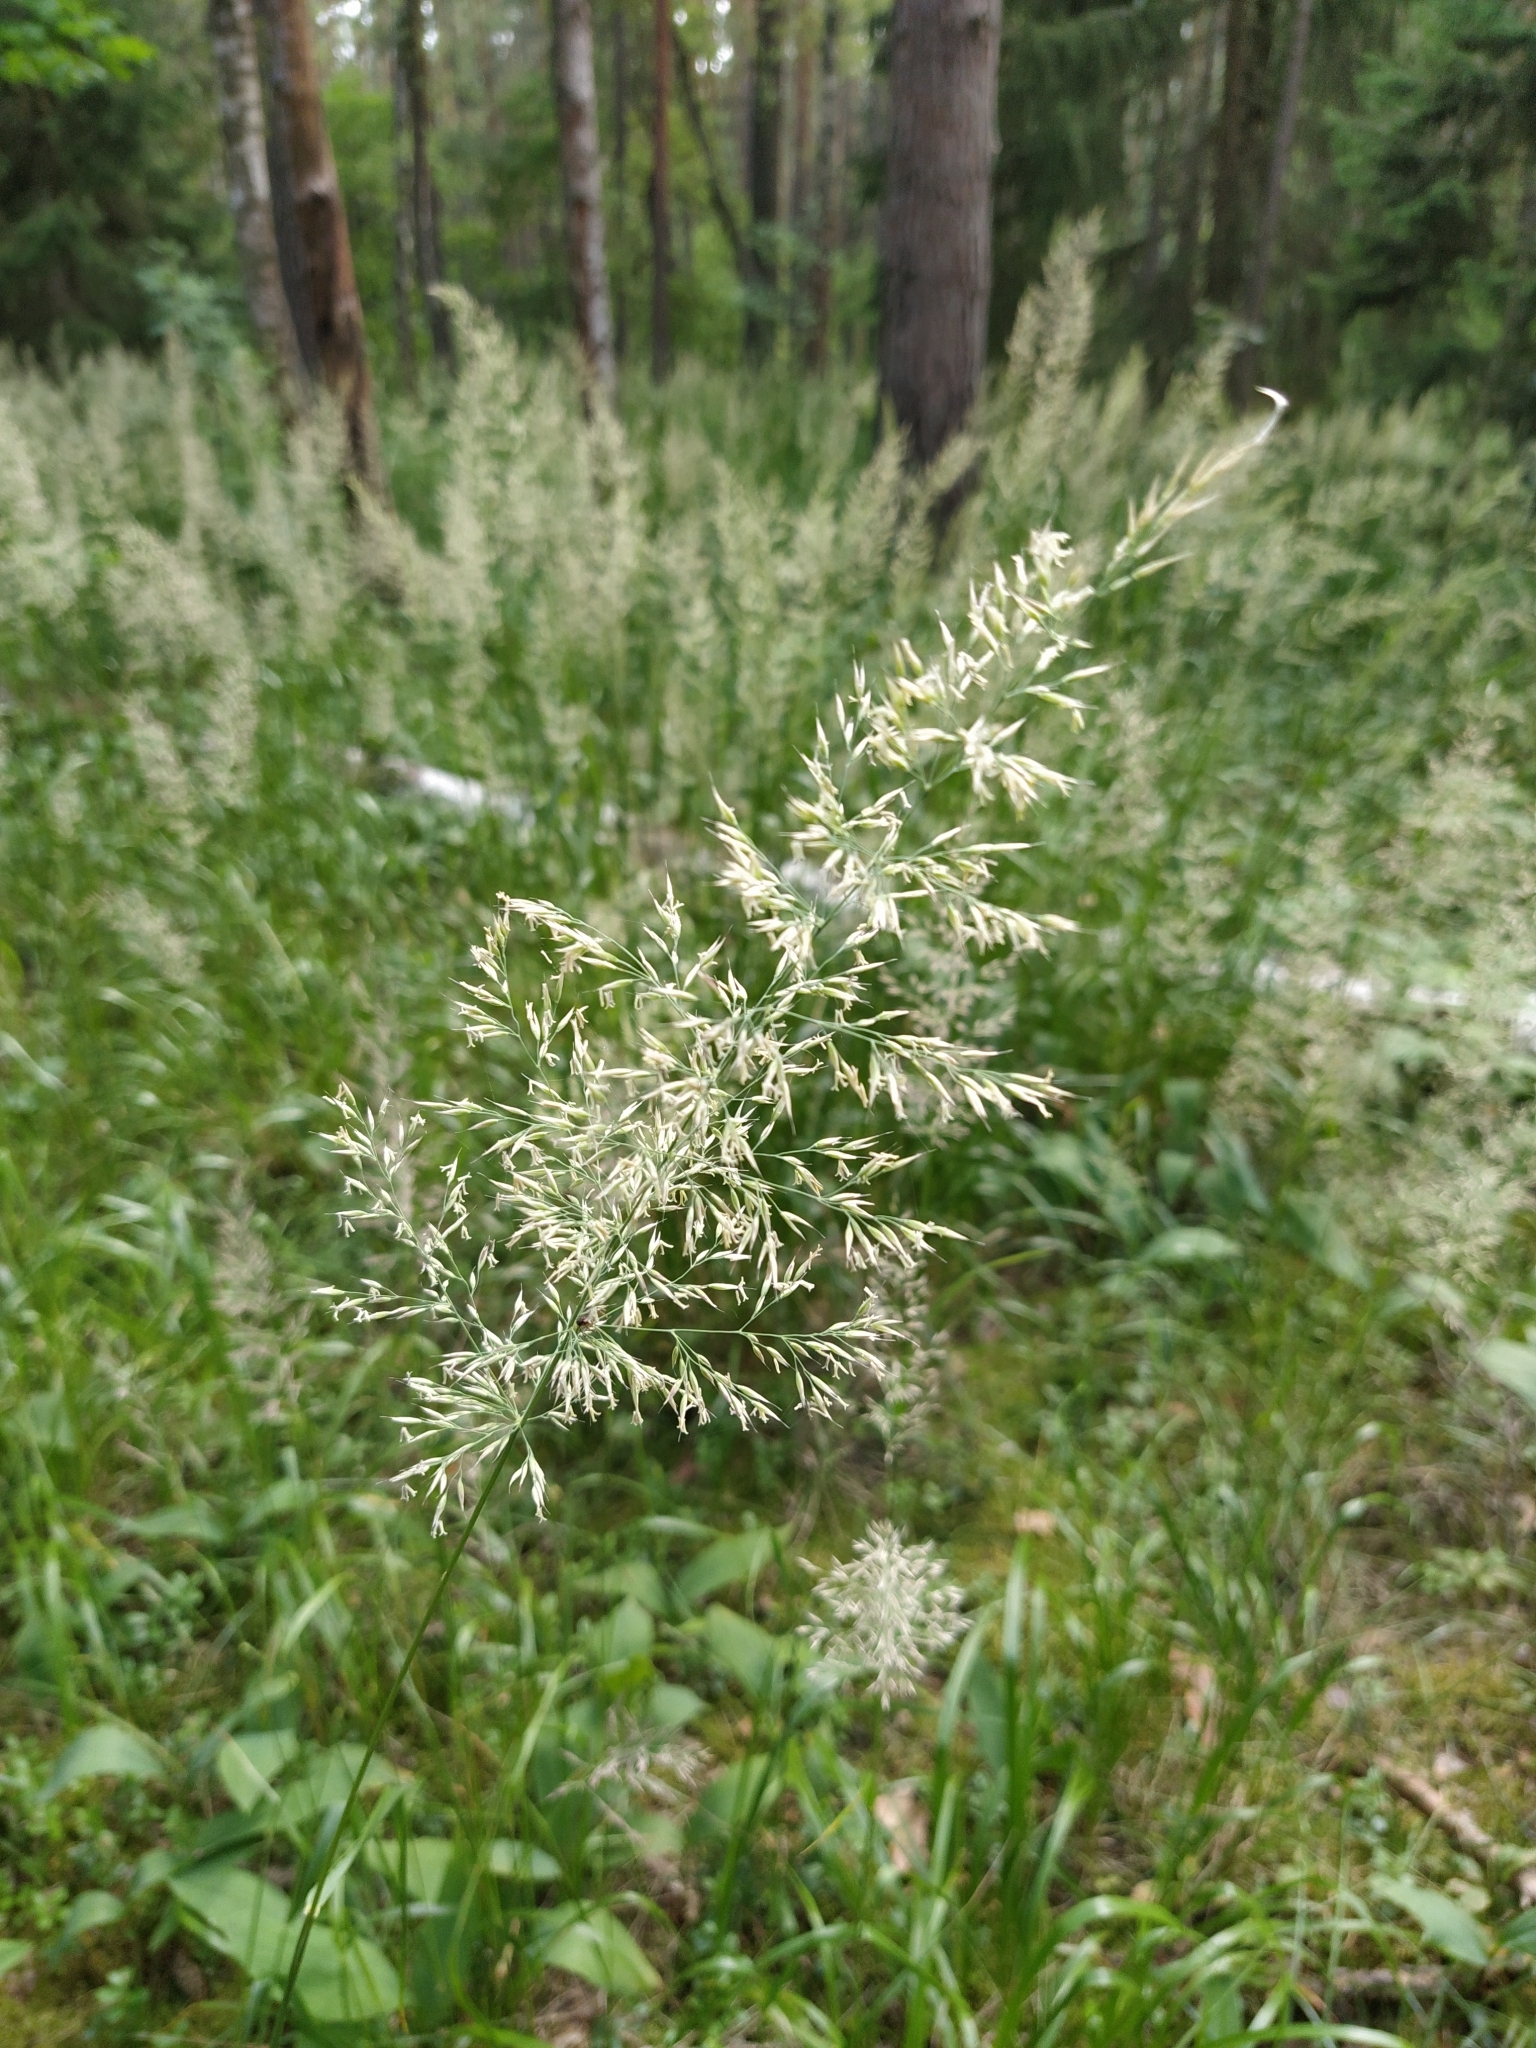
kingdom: Plantae
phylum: Tracheophyta
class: Liliopsida
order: Poales
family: Poaceae
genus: Calamagrostis
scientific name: Calamagrostis arundinacea
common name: Metskastik
